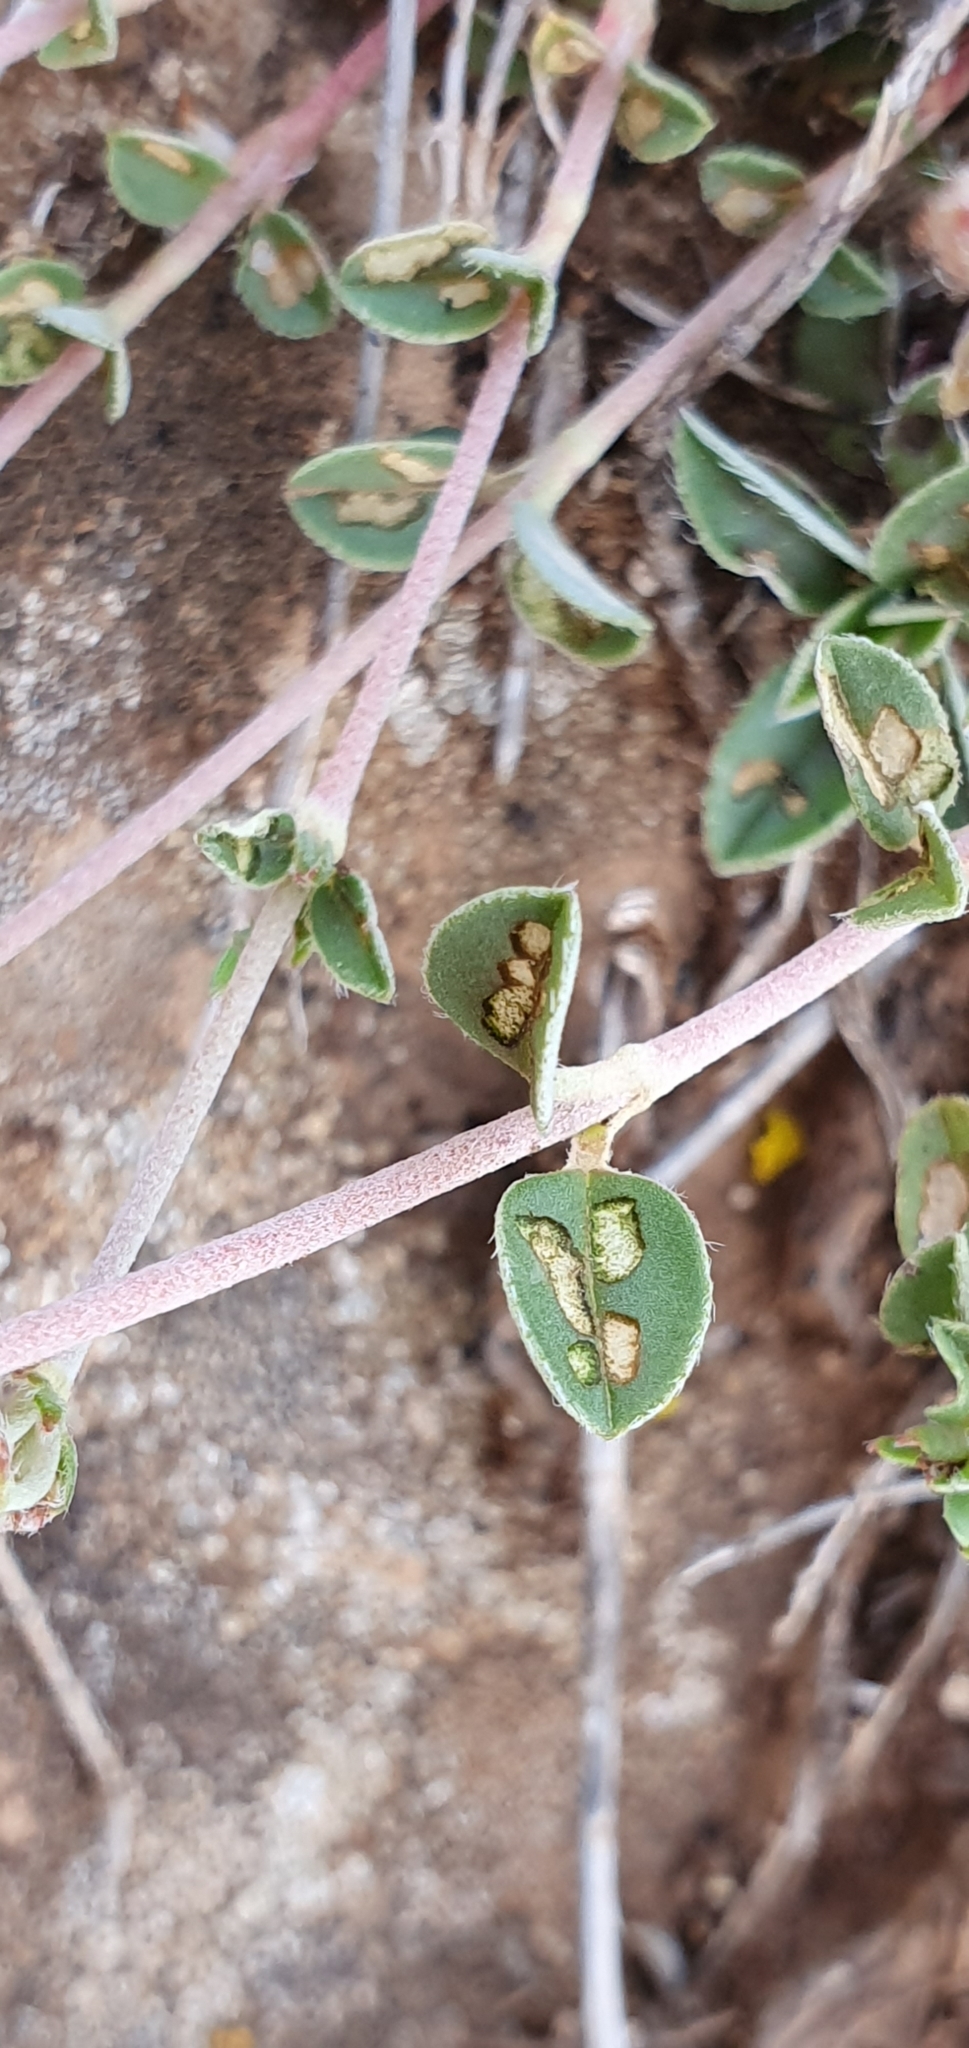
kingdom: Plantae
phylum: Tracheophyta
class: Magnoliopsida
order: Malvales
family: Cistaceae
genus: Helianthemum
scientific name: Helianthemum cinereum
